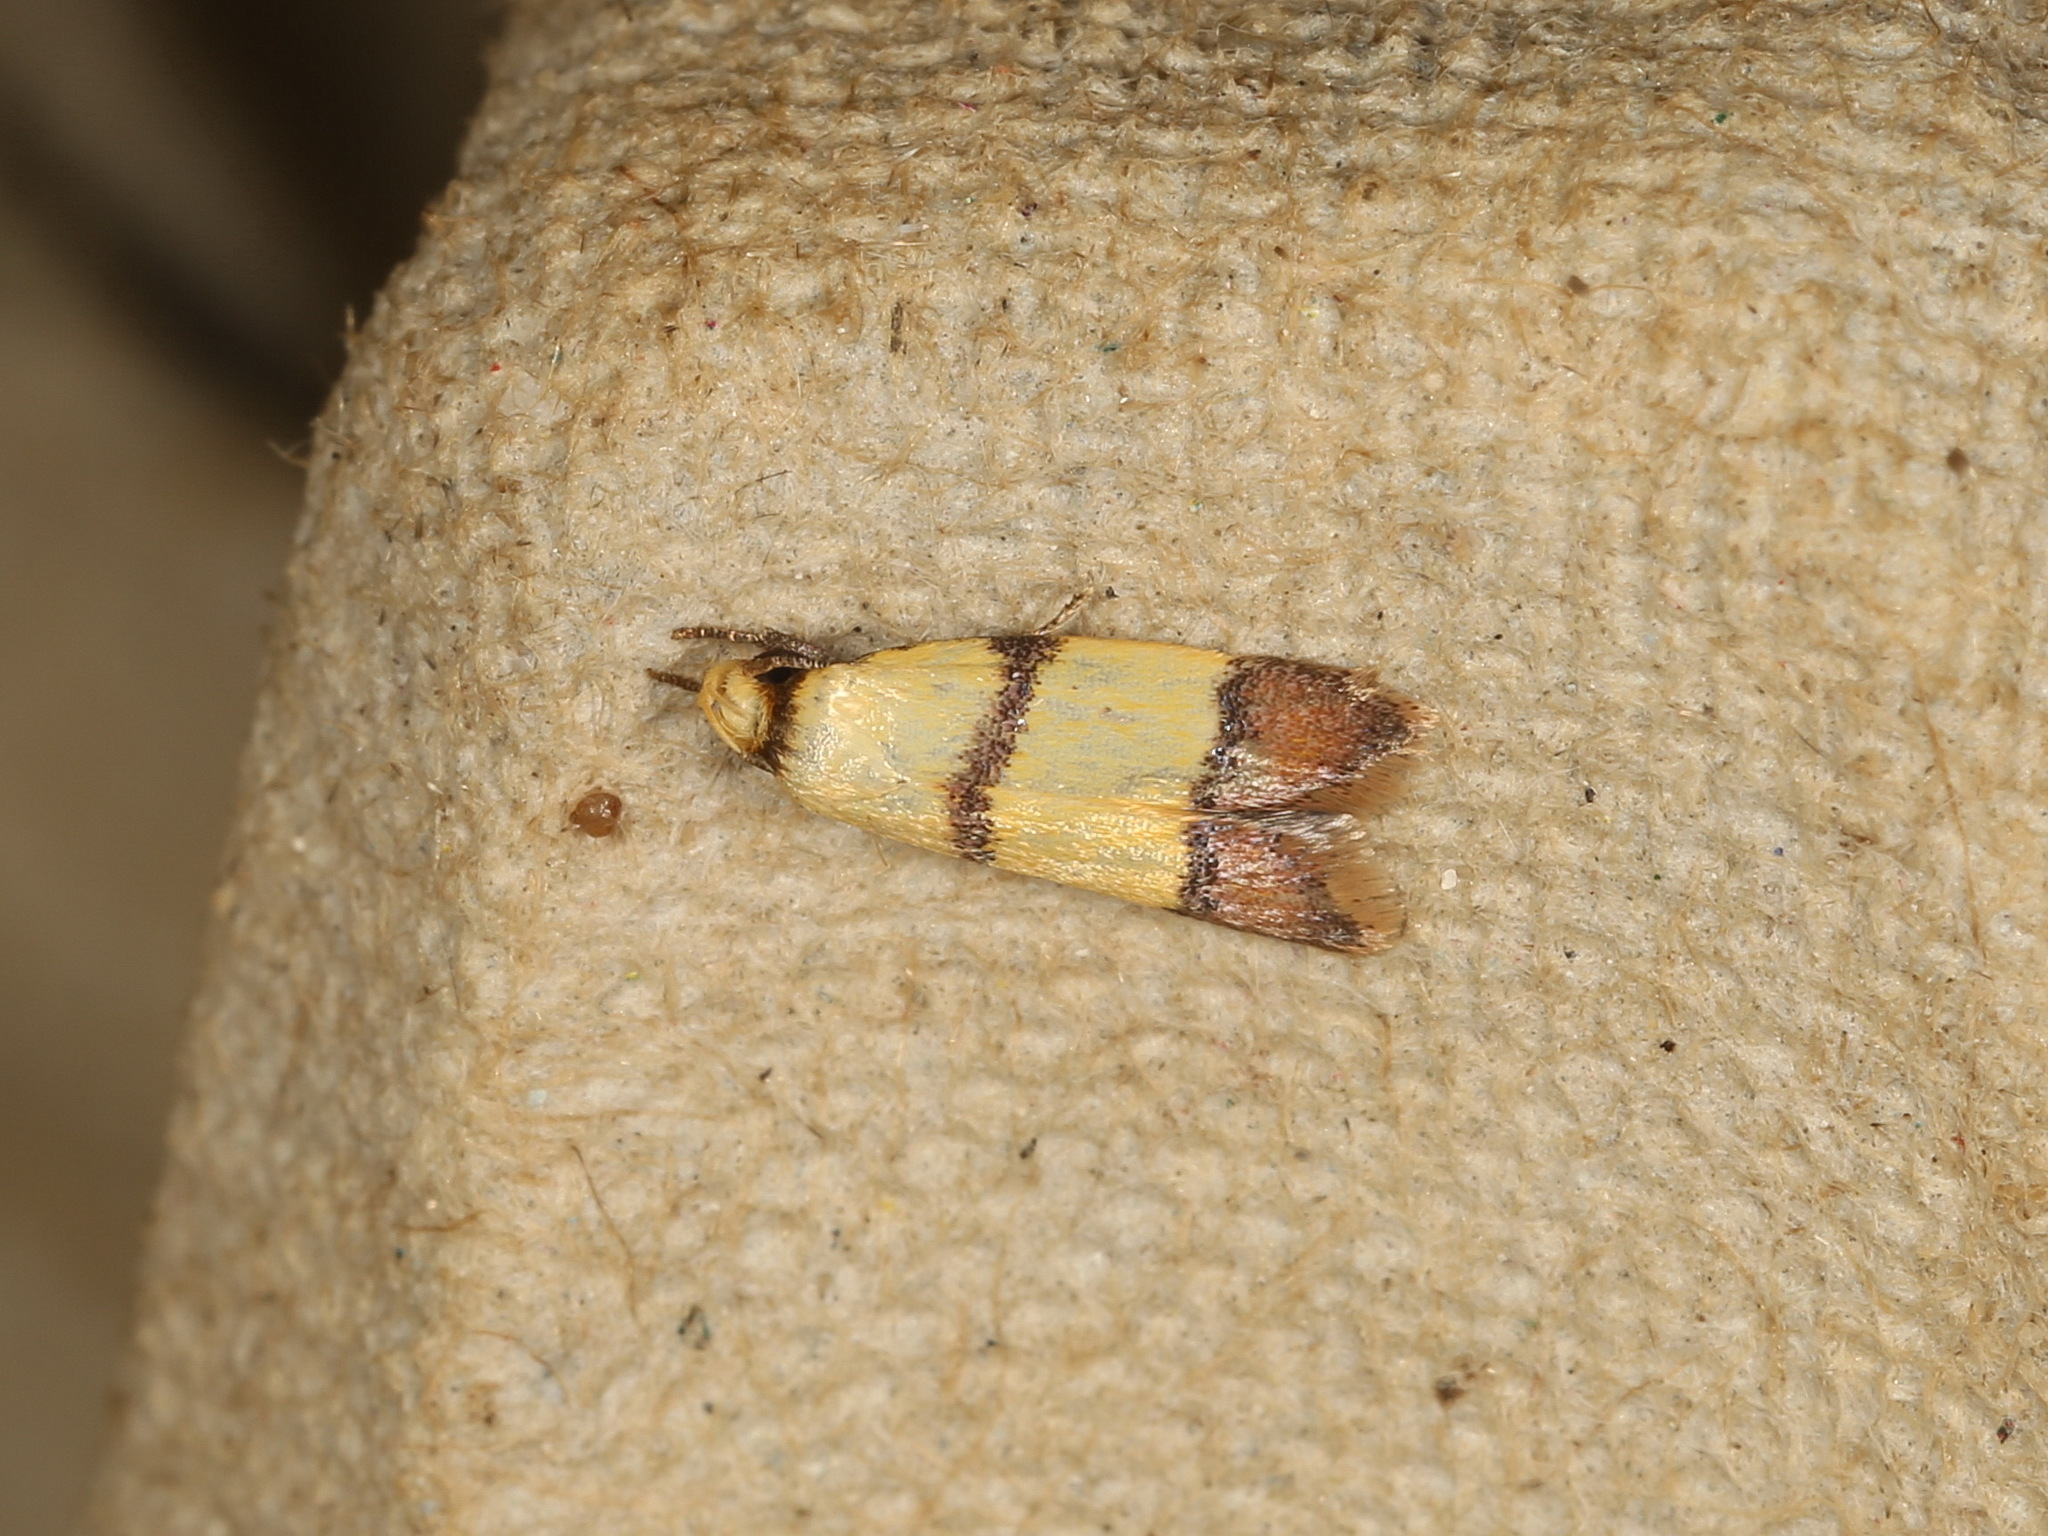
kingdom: Animalia
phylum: Arthropoda
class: Insecta
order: Lepidoptera
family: Oecophoridae
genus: Heteroteucha
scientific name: Heteroteucha distephana
